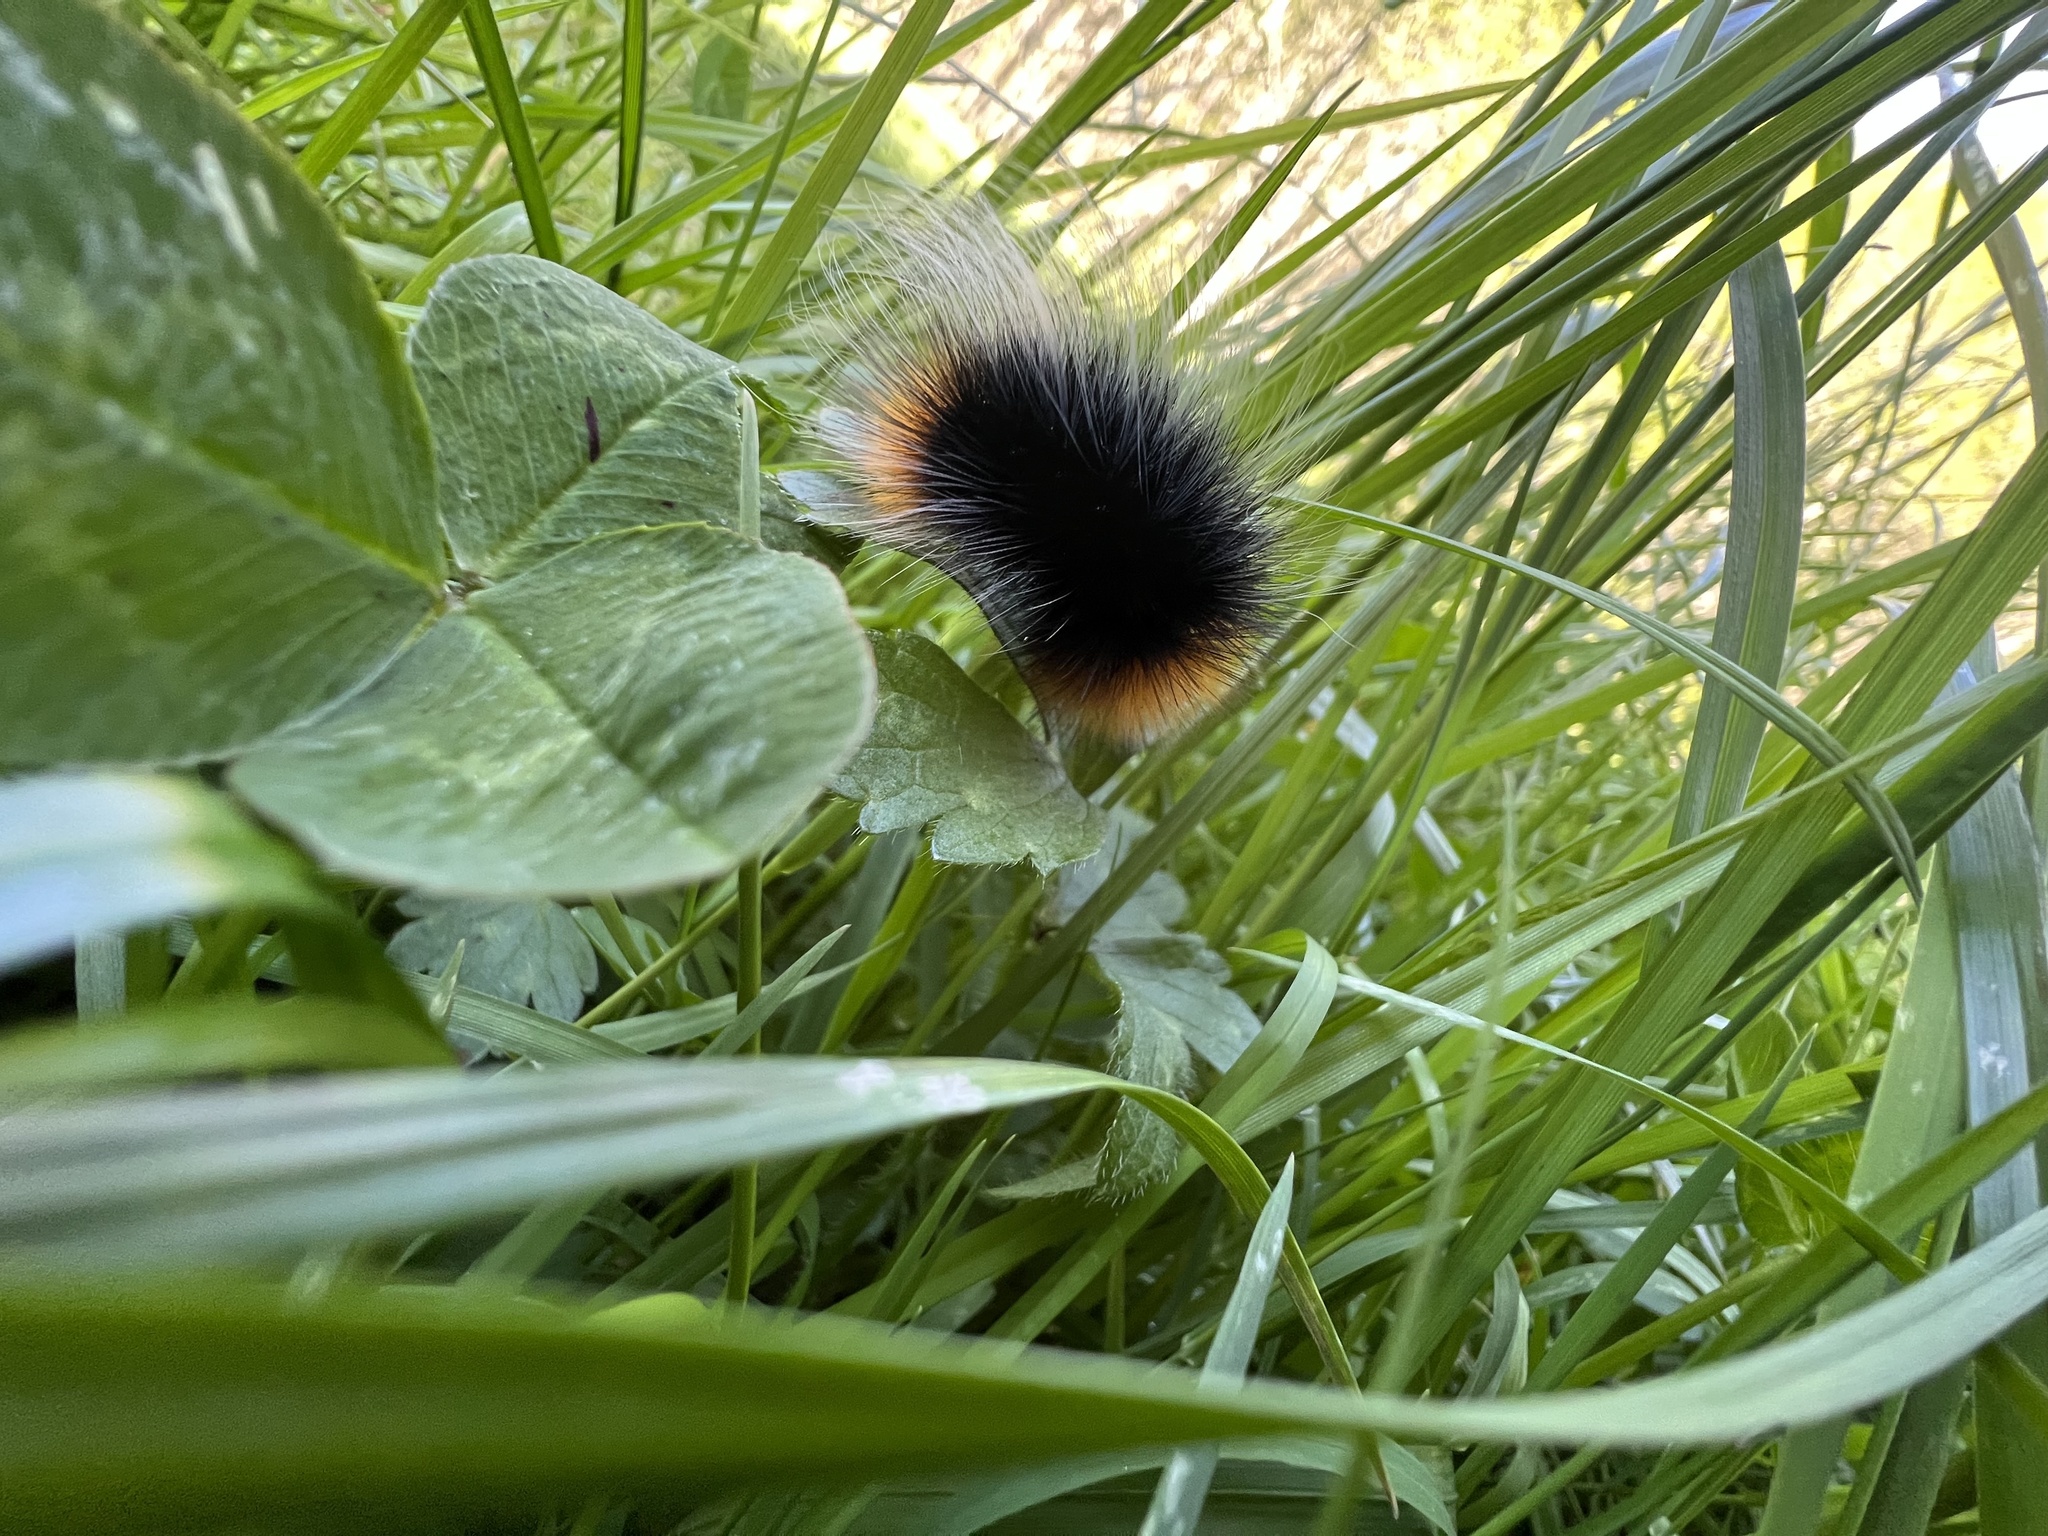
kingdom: Animalia
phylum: Arthropoda
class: Insecta
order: Lepidoptera
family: Erebidae
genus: Arctia
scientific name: Arctia tigrina
